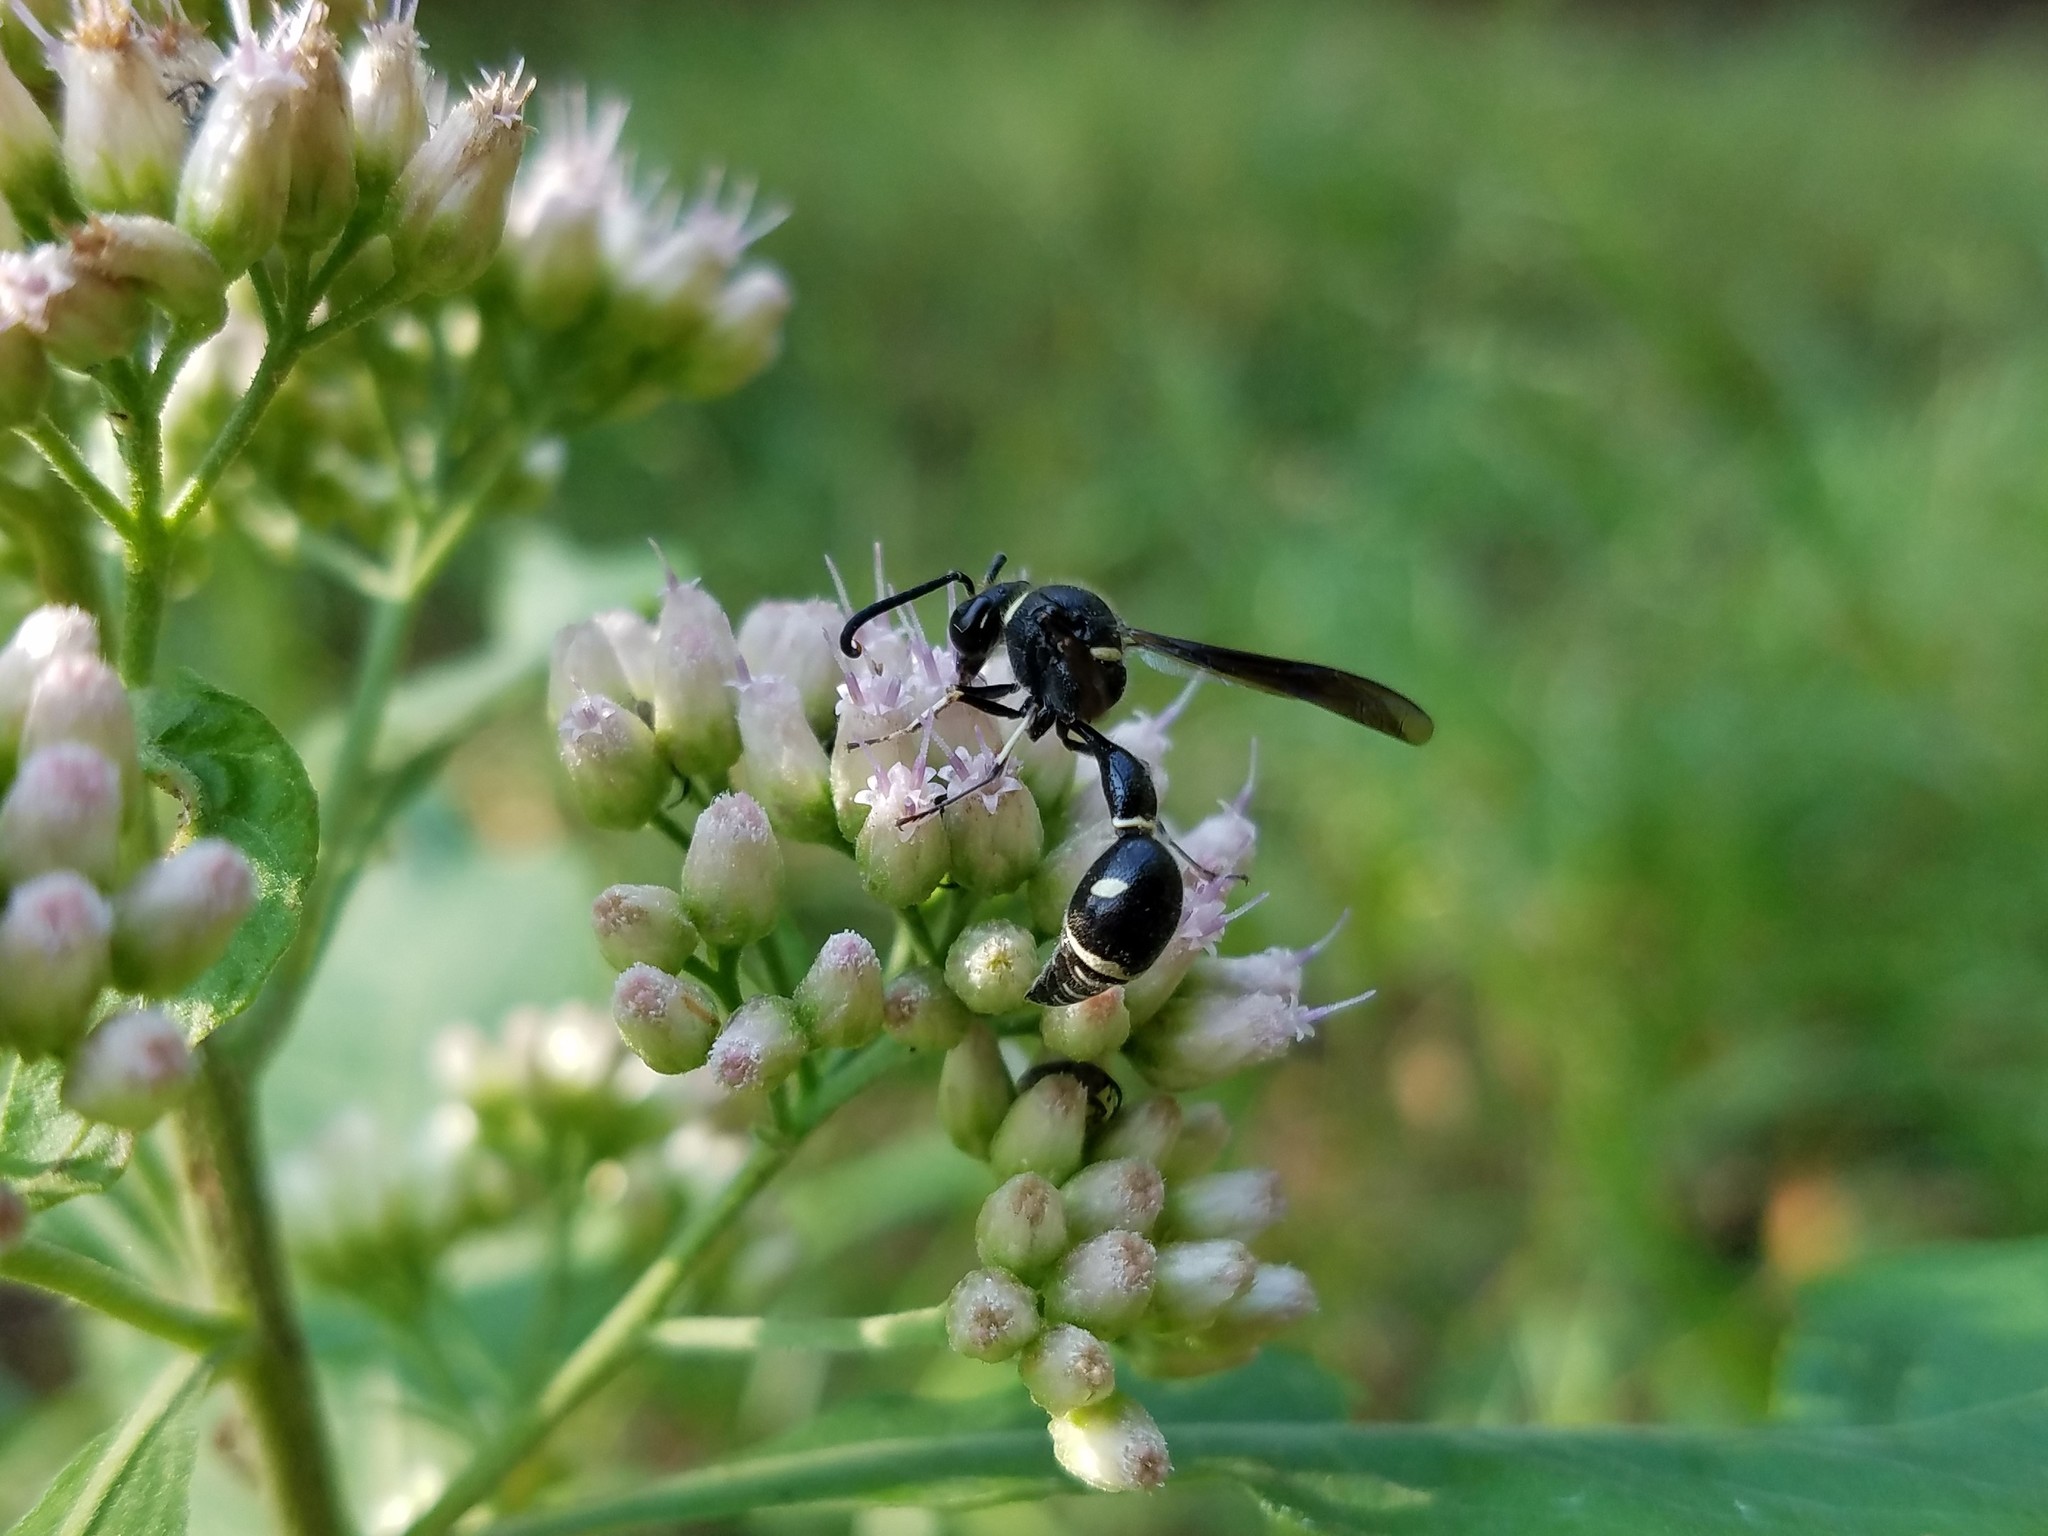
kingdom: Animalia
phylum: Arthropoda
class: Insecta
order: Hymenoptera
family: Vespidae
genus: Eumenes
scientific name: Eumenes fraternus
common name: Fraternal potter wasp
